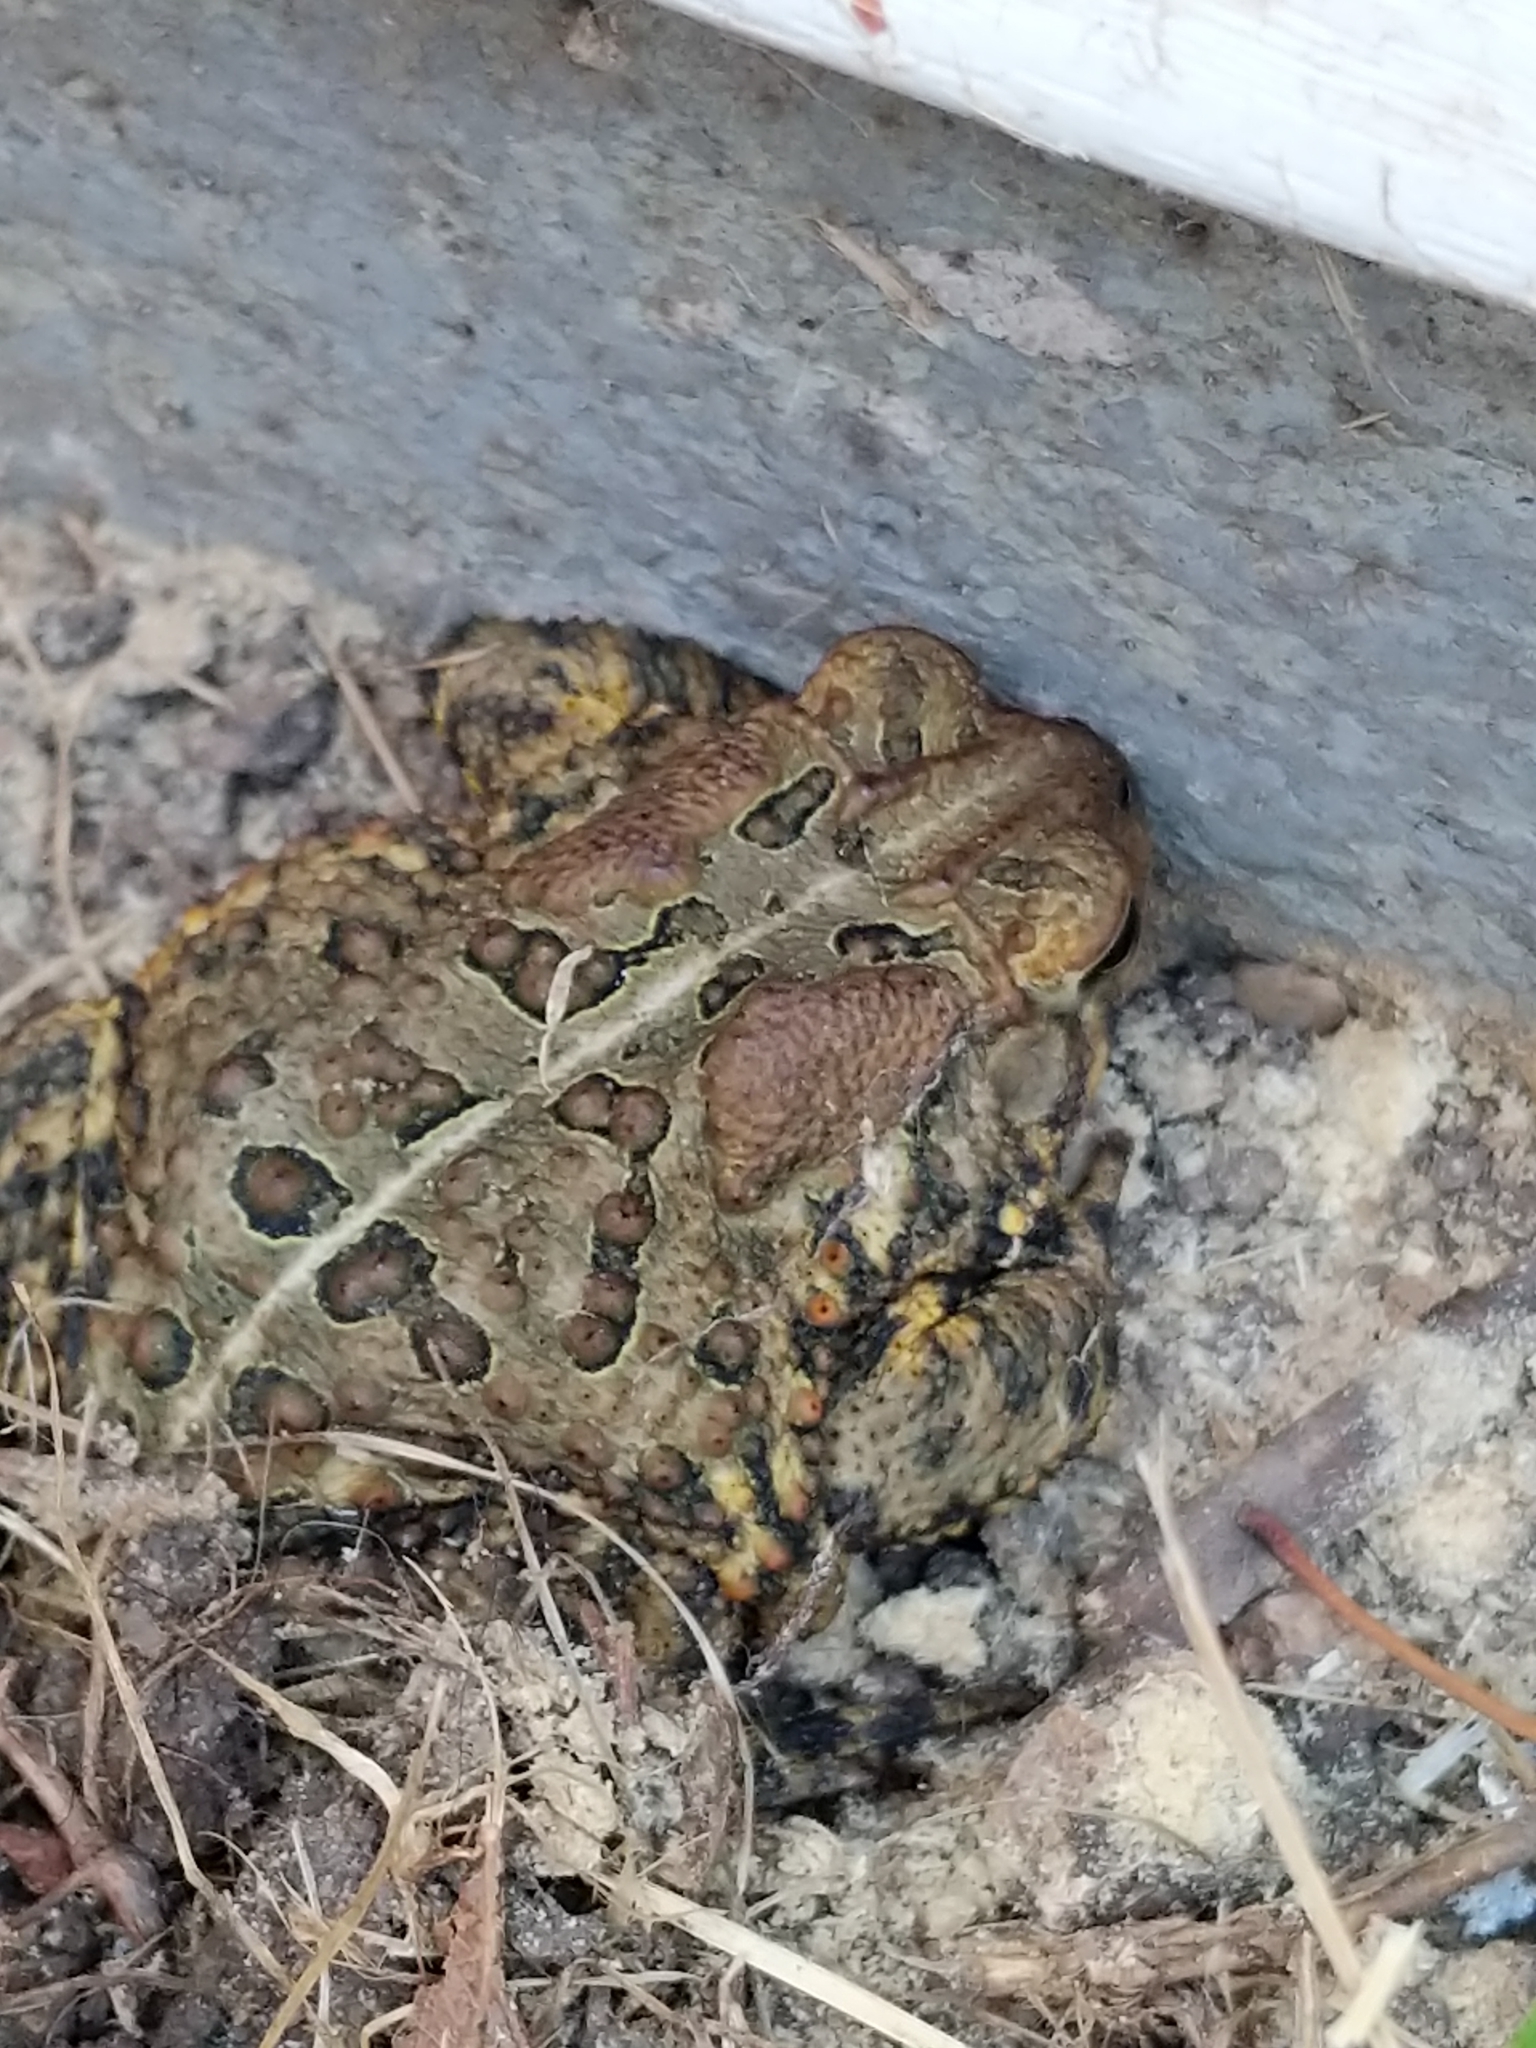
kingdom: Animalia
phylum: Chordata
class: Amphibia
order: Anura
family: Bufonidae
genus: Anaxyrus
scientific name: Anaxyrus americanus
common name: American toad
